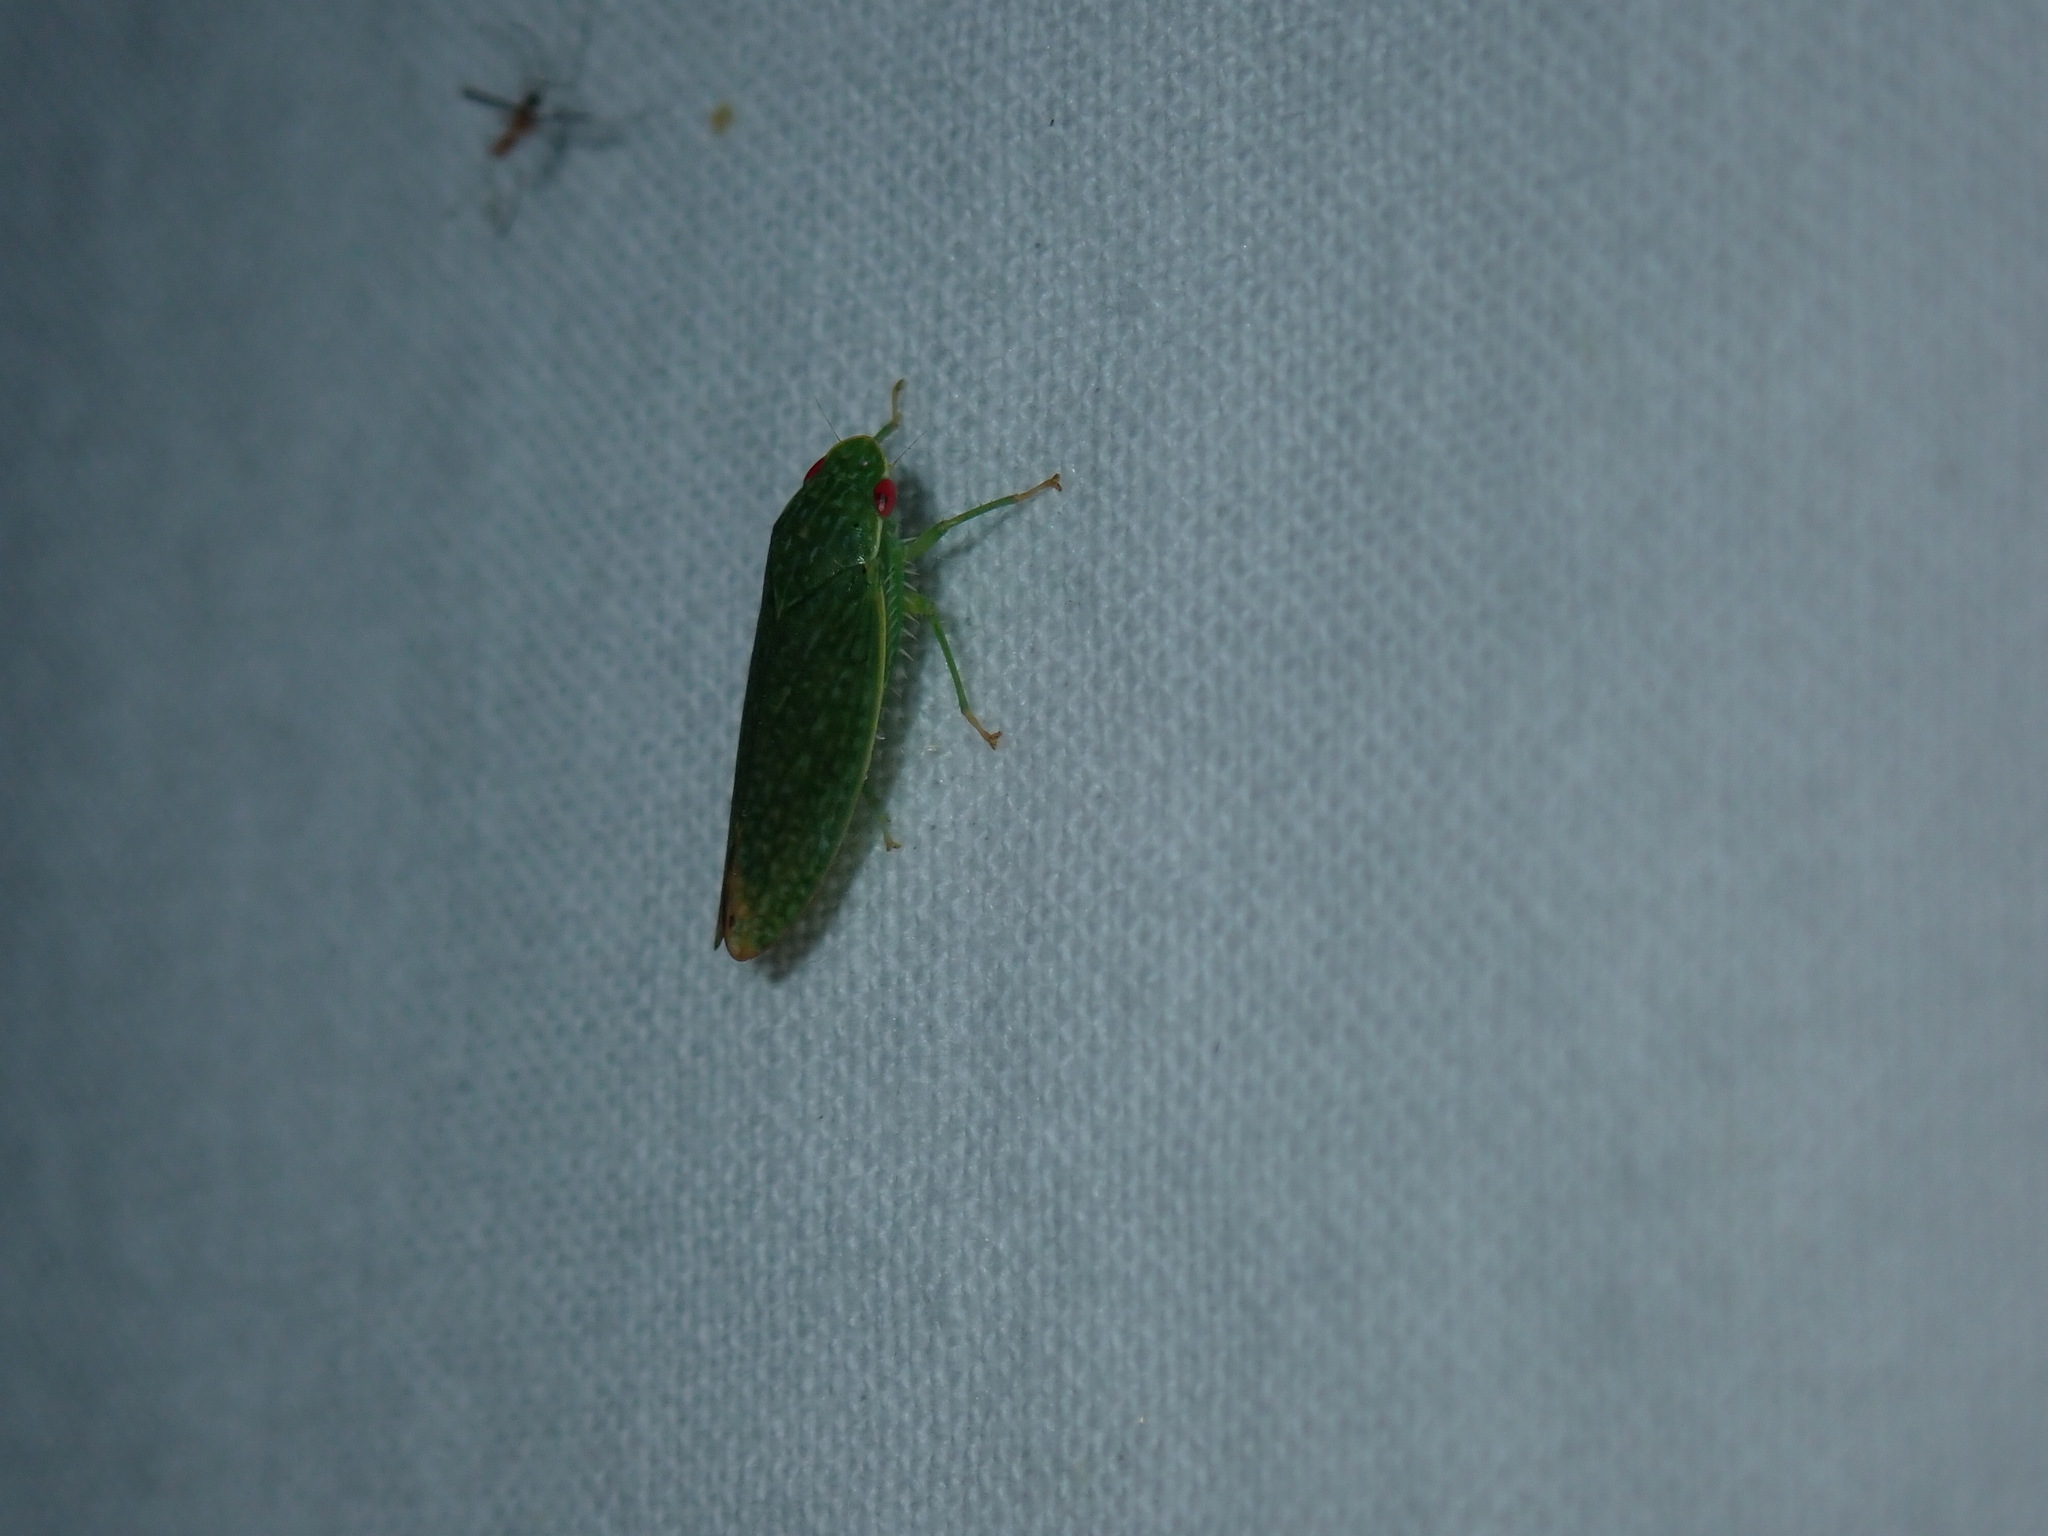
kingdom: Animalia
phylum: Arthropoda
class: Insecta
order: Hemiptera
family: Cicadellidae
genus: Rugosana
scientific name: Rugosana querci
